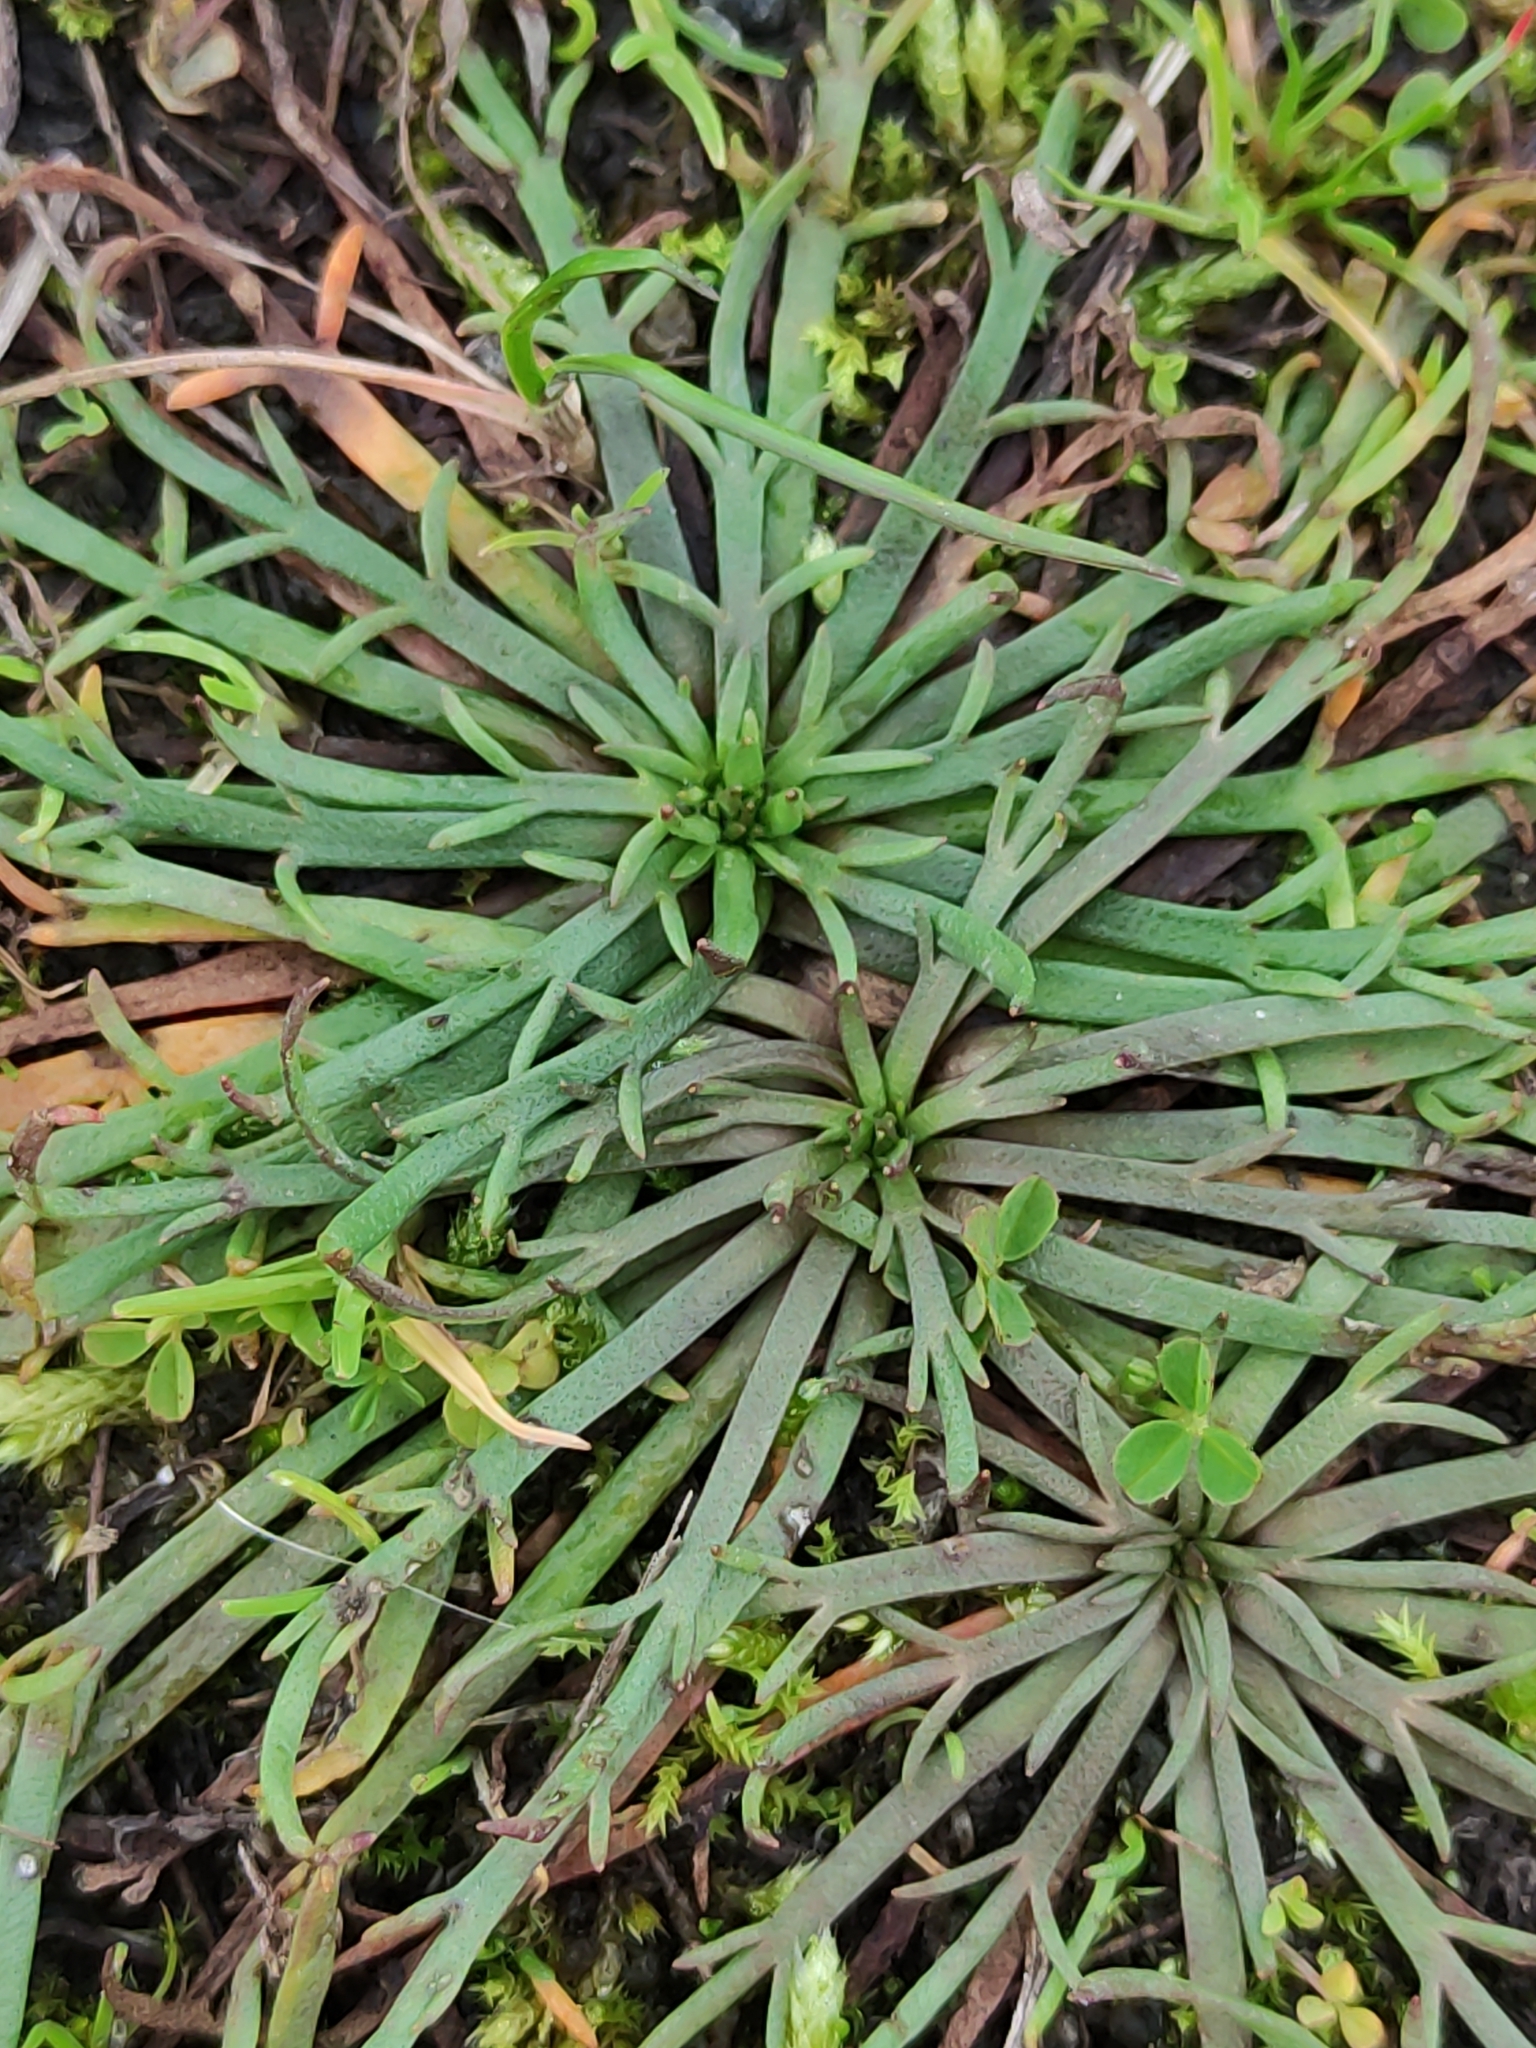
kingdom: Plantae
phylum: Tracheophyta
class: Magnoliopsida
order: Lamiales
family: Plantaginaceae
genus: Plantago
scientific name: Plantago coronopus
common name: Buck's-horn plantain
